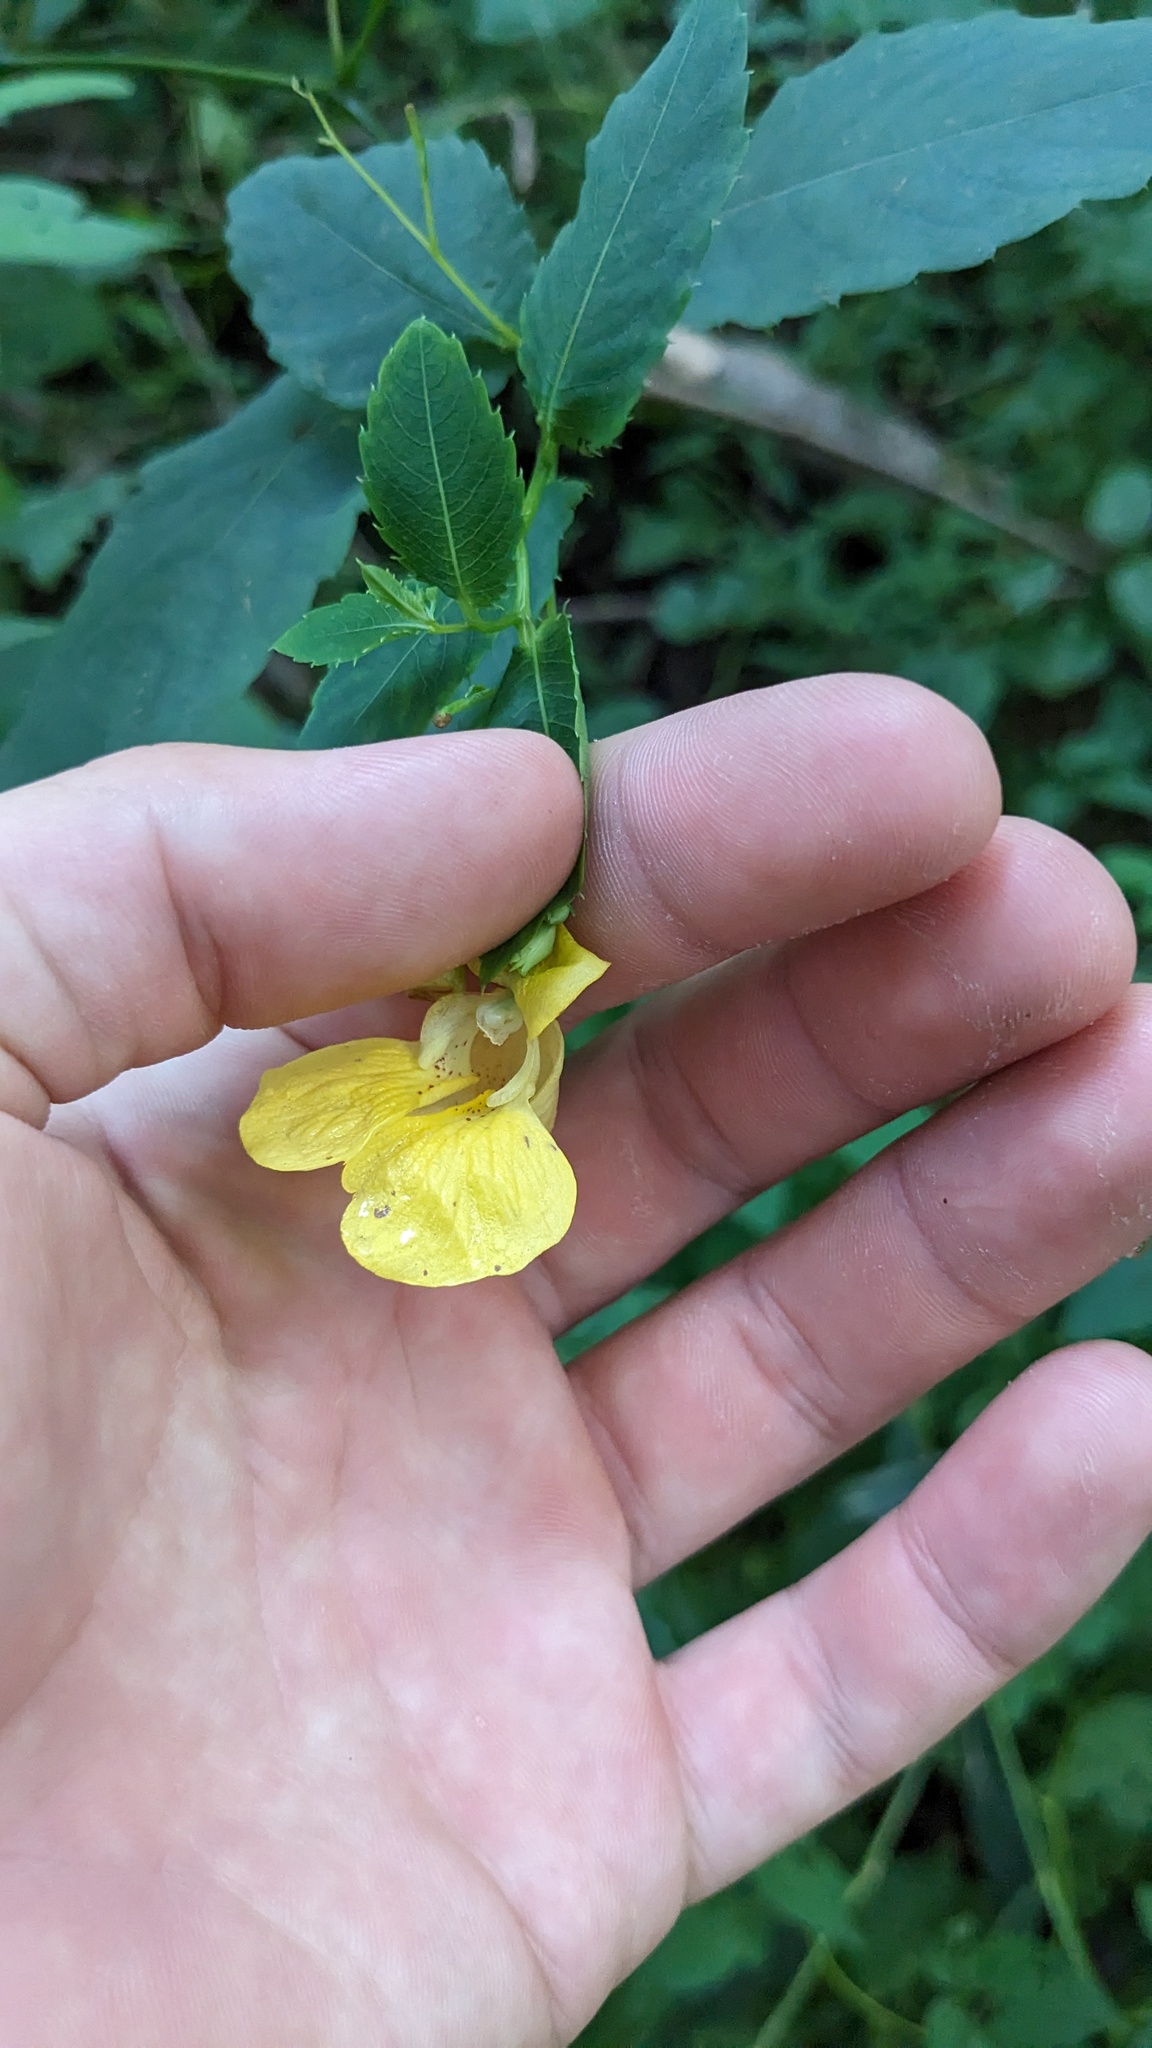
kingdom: Plantae
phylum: Tracheophyta
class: Magnoliopsida
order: Ericales
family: Balsaminaceae
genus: Impatiens
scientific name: Impatiens pallida
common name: Pale snapweed
